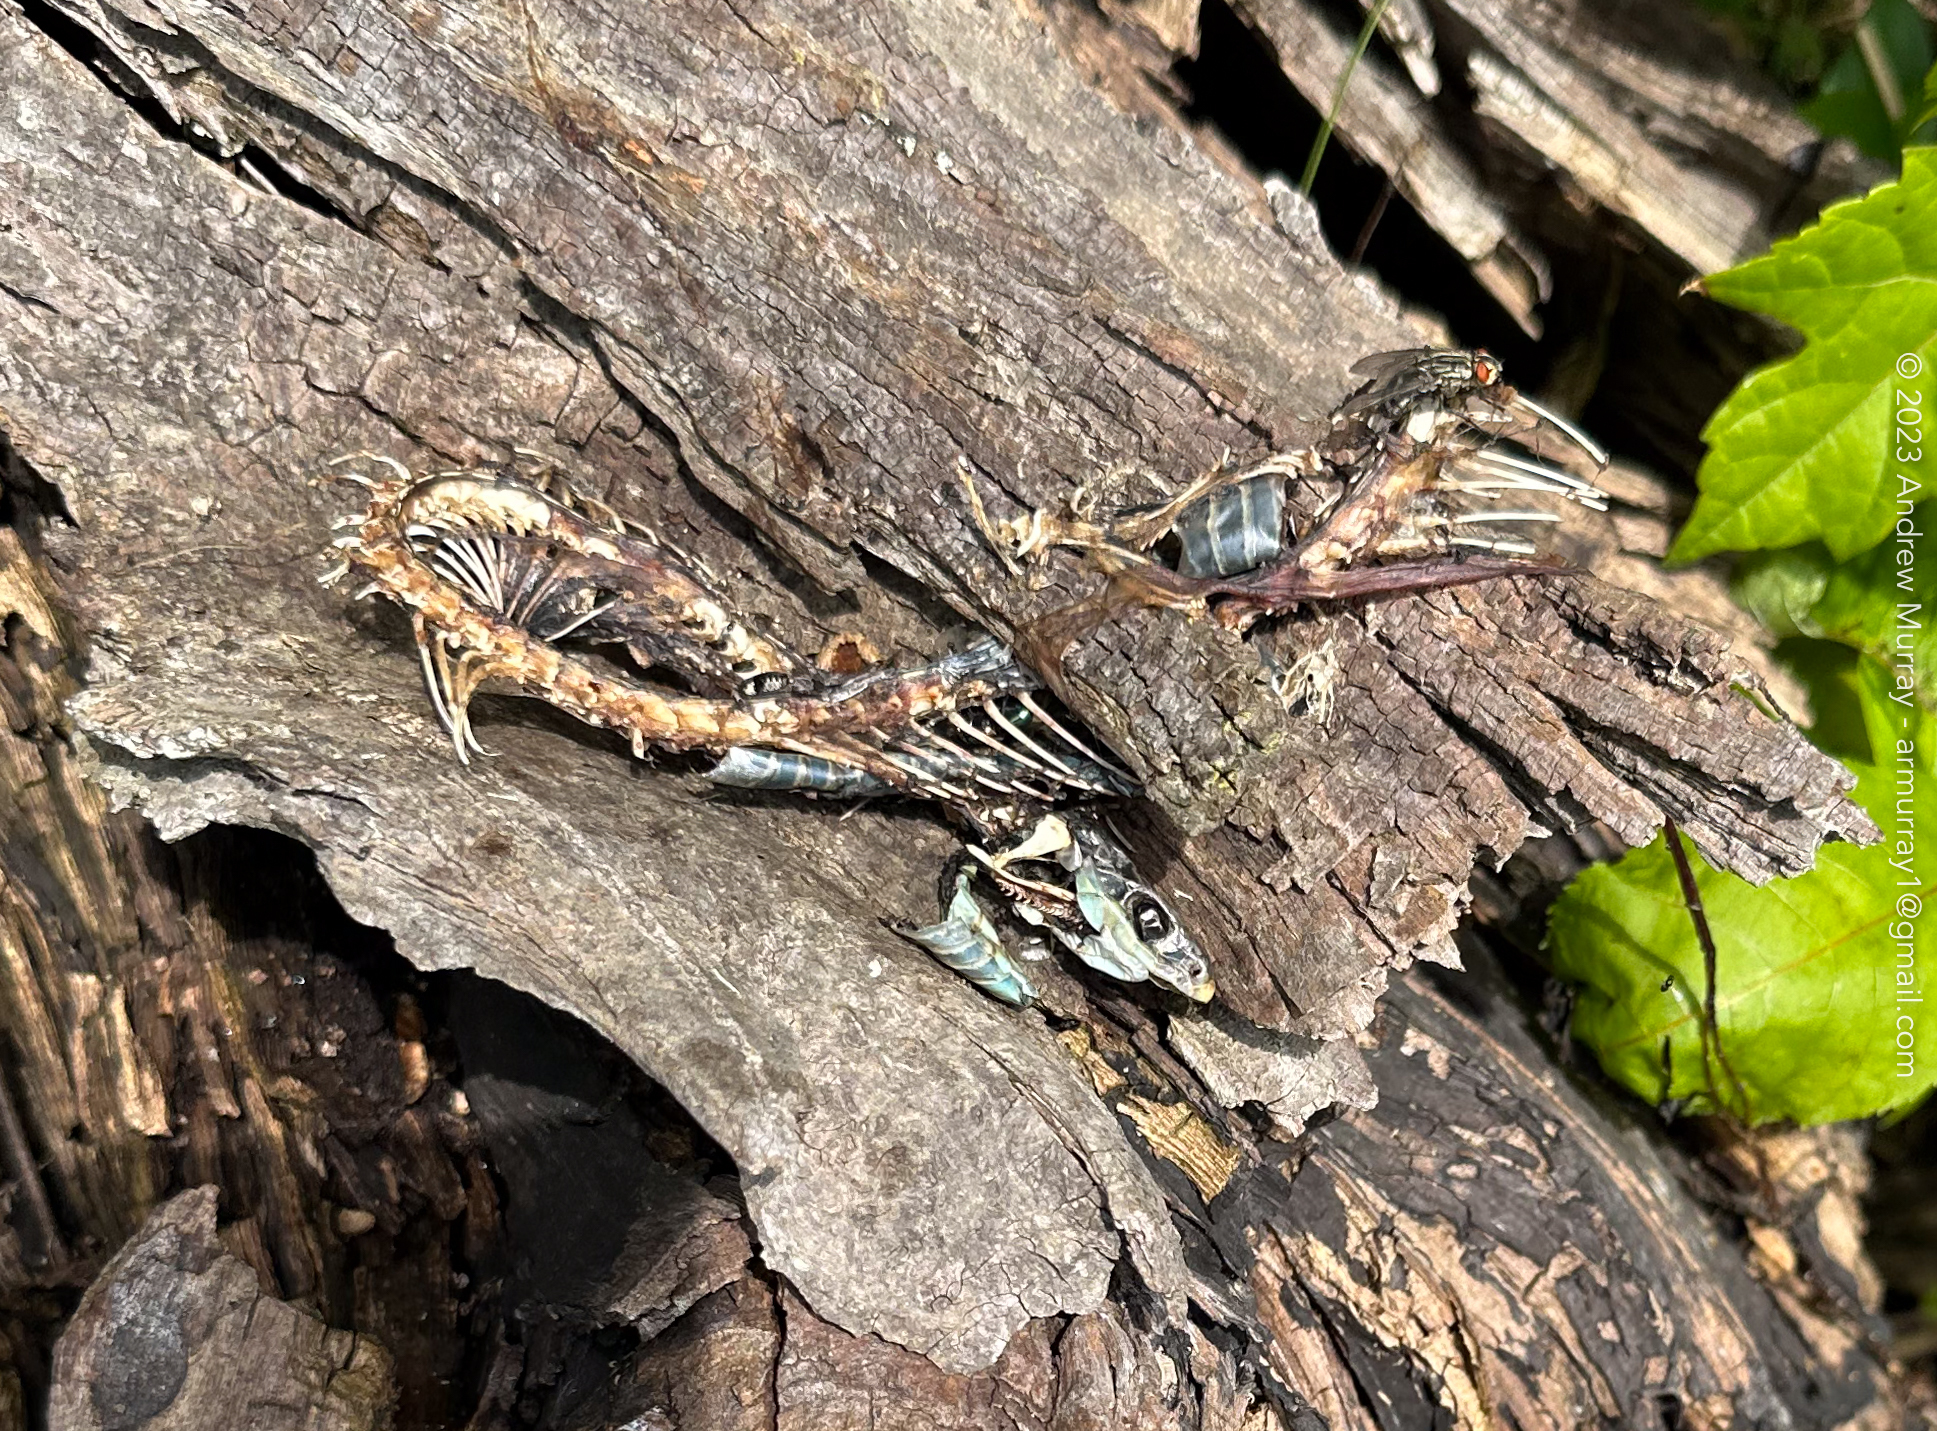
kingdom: Animalia
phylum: Chordata
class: Squamata
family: Colubridae
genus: Thamnophis
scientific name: Thamnophis sirtalis
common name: Common garter snake
